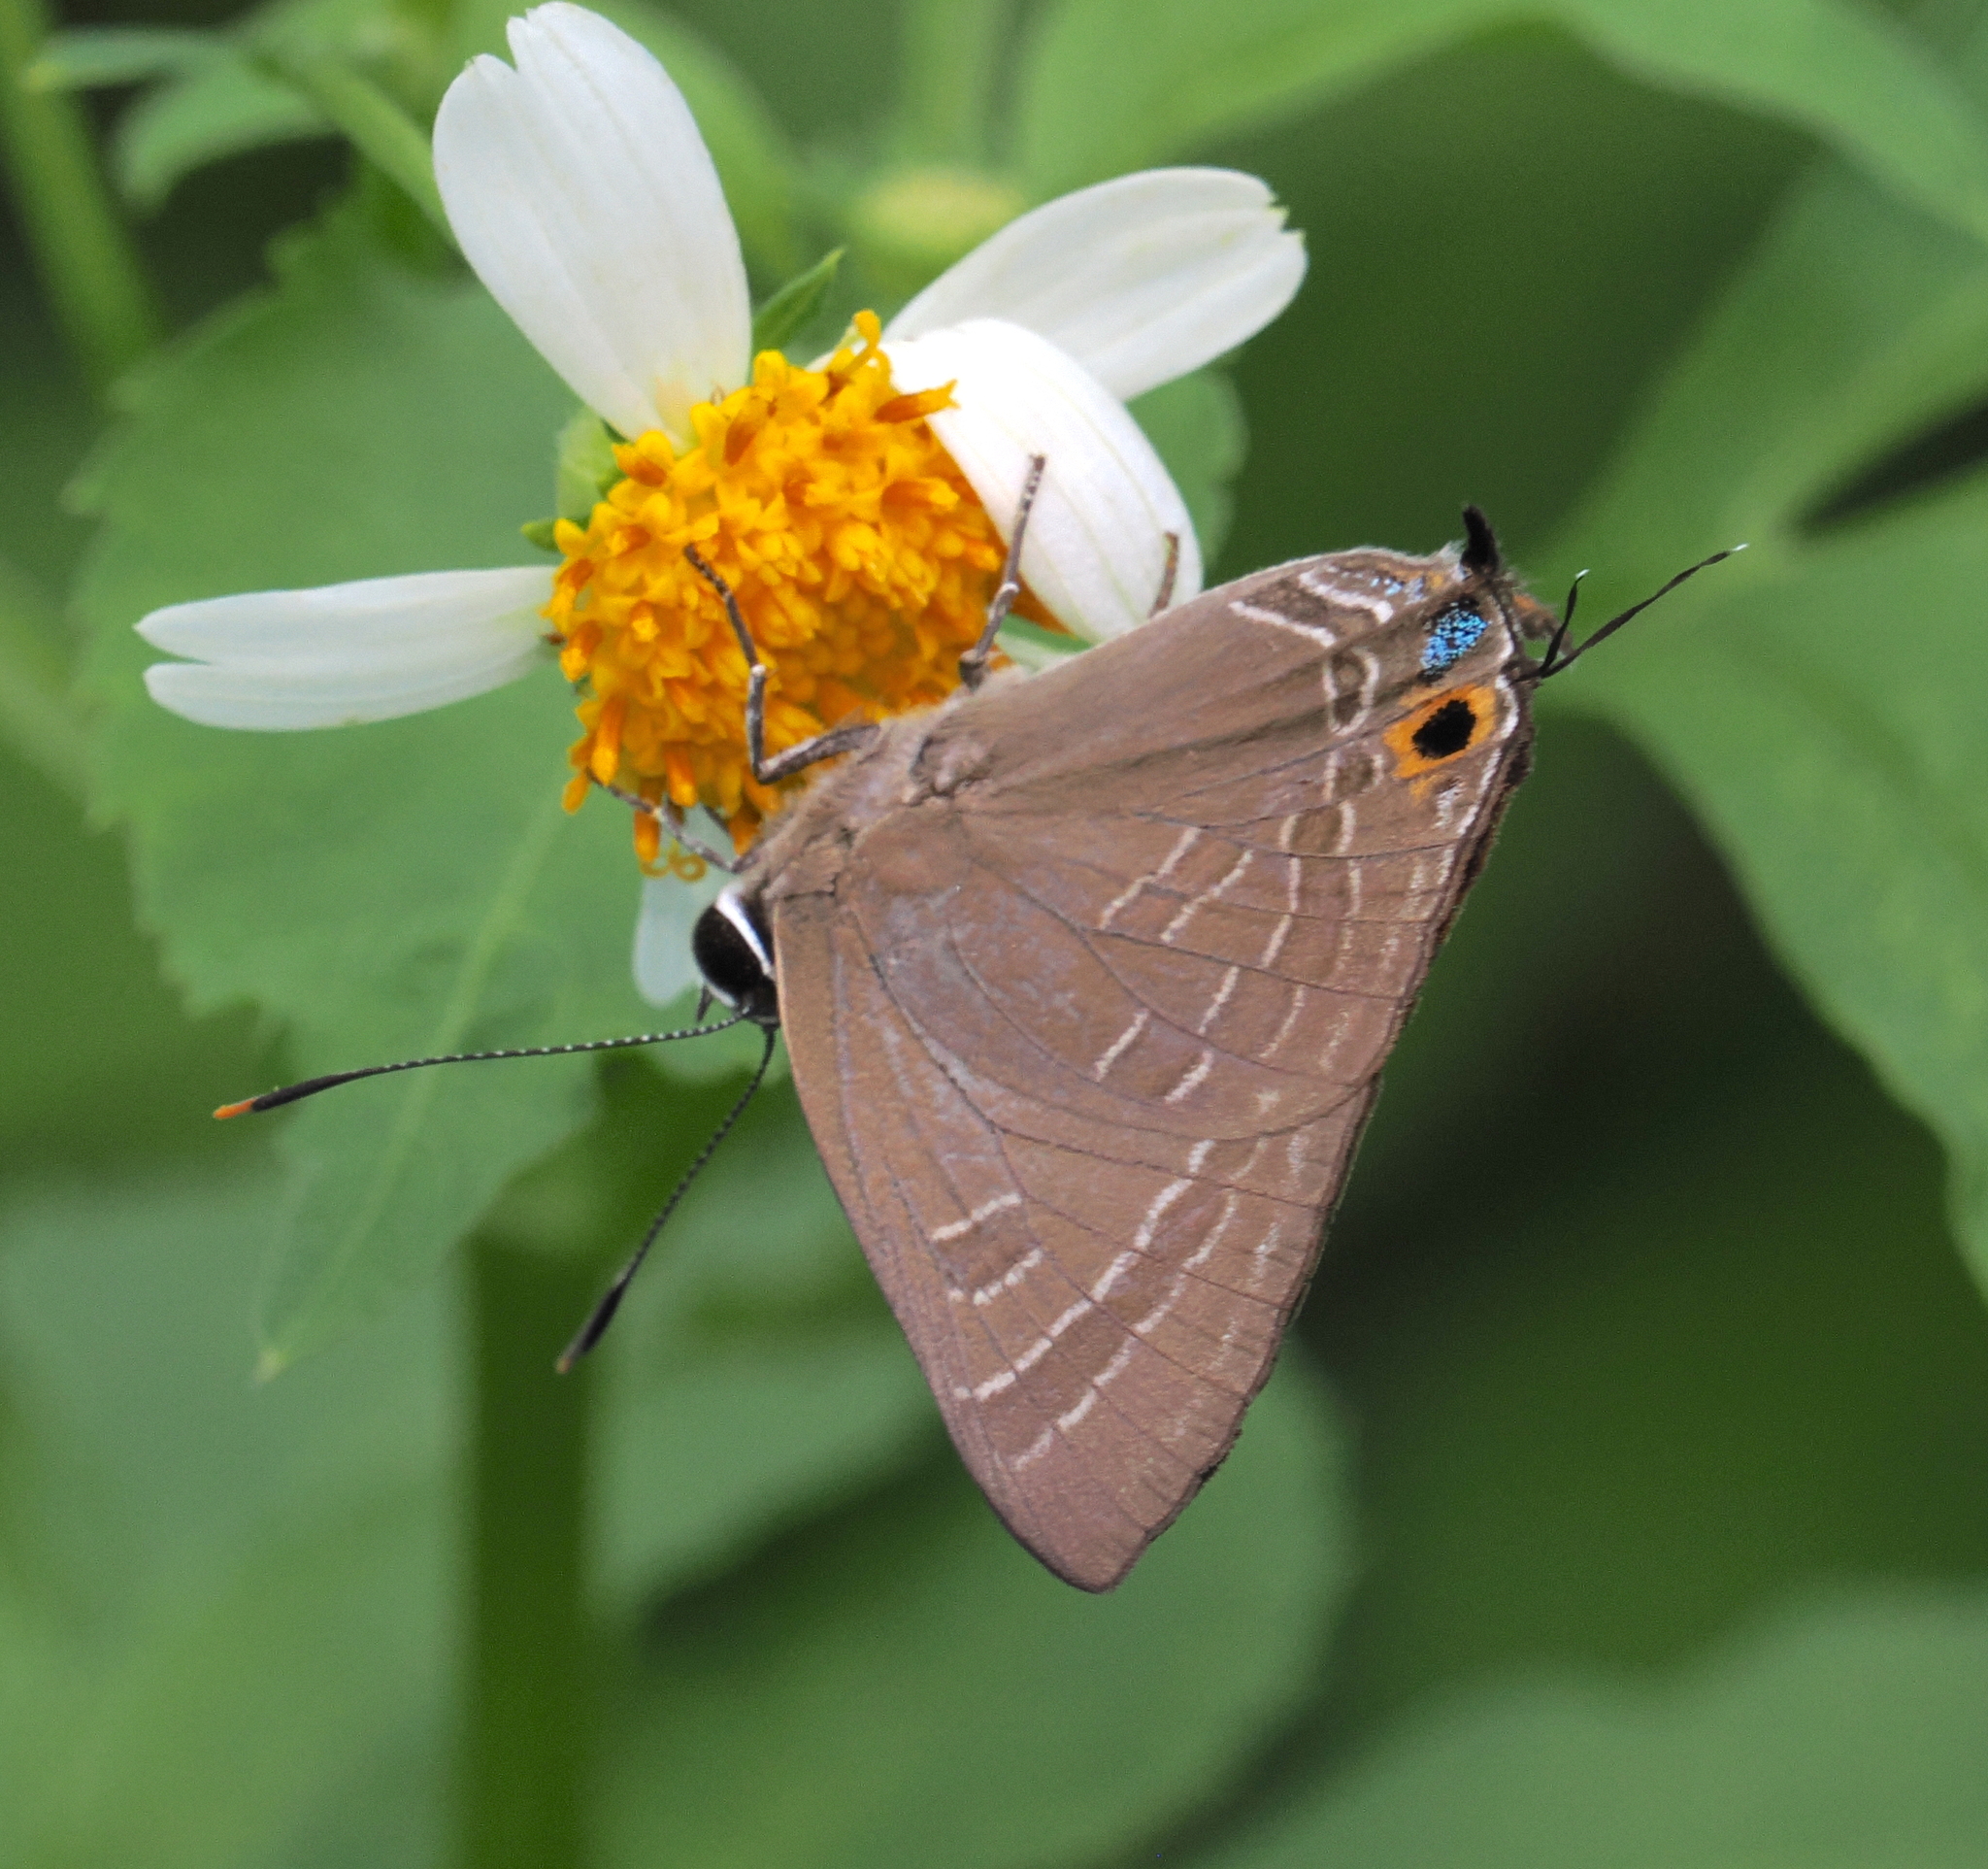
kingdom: Animalia
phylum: Arthropoda
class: Insecta
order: Lepidoptera
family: Lycaenidae
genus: Deudorix
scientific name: Deudorix epijarbas
